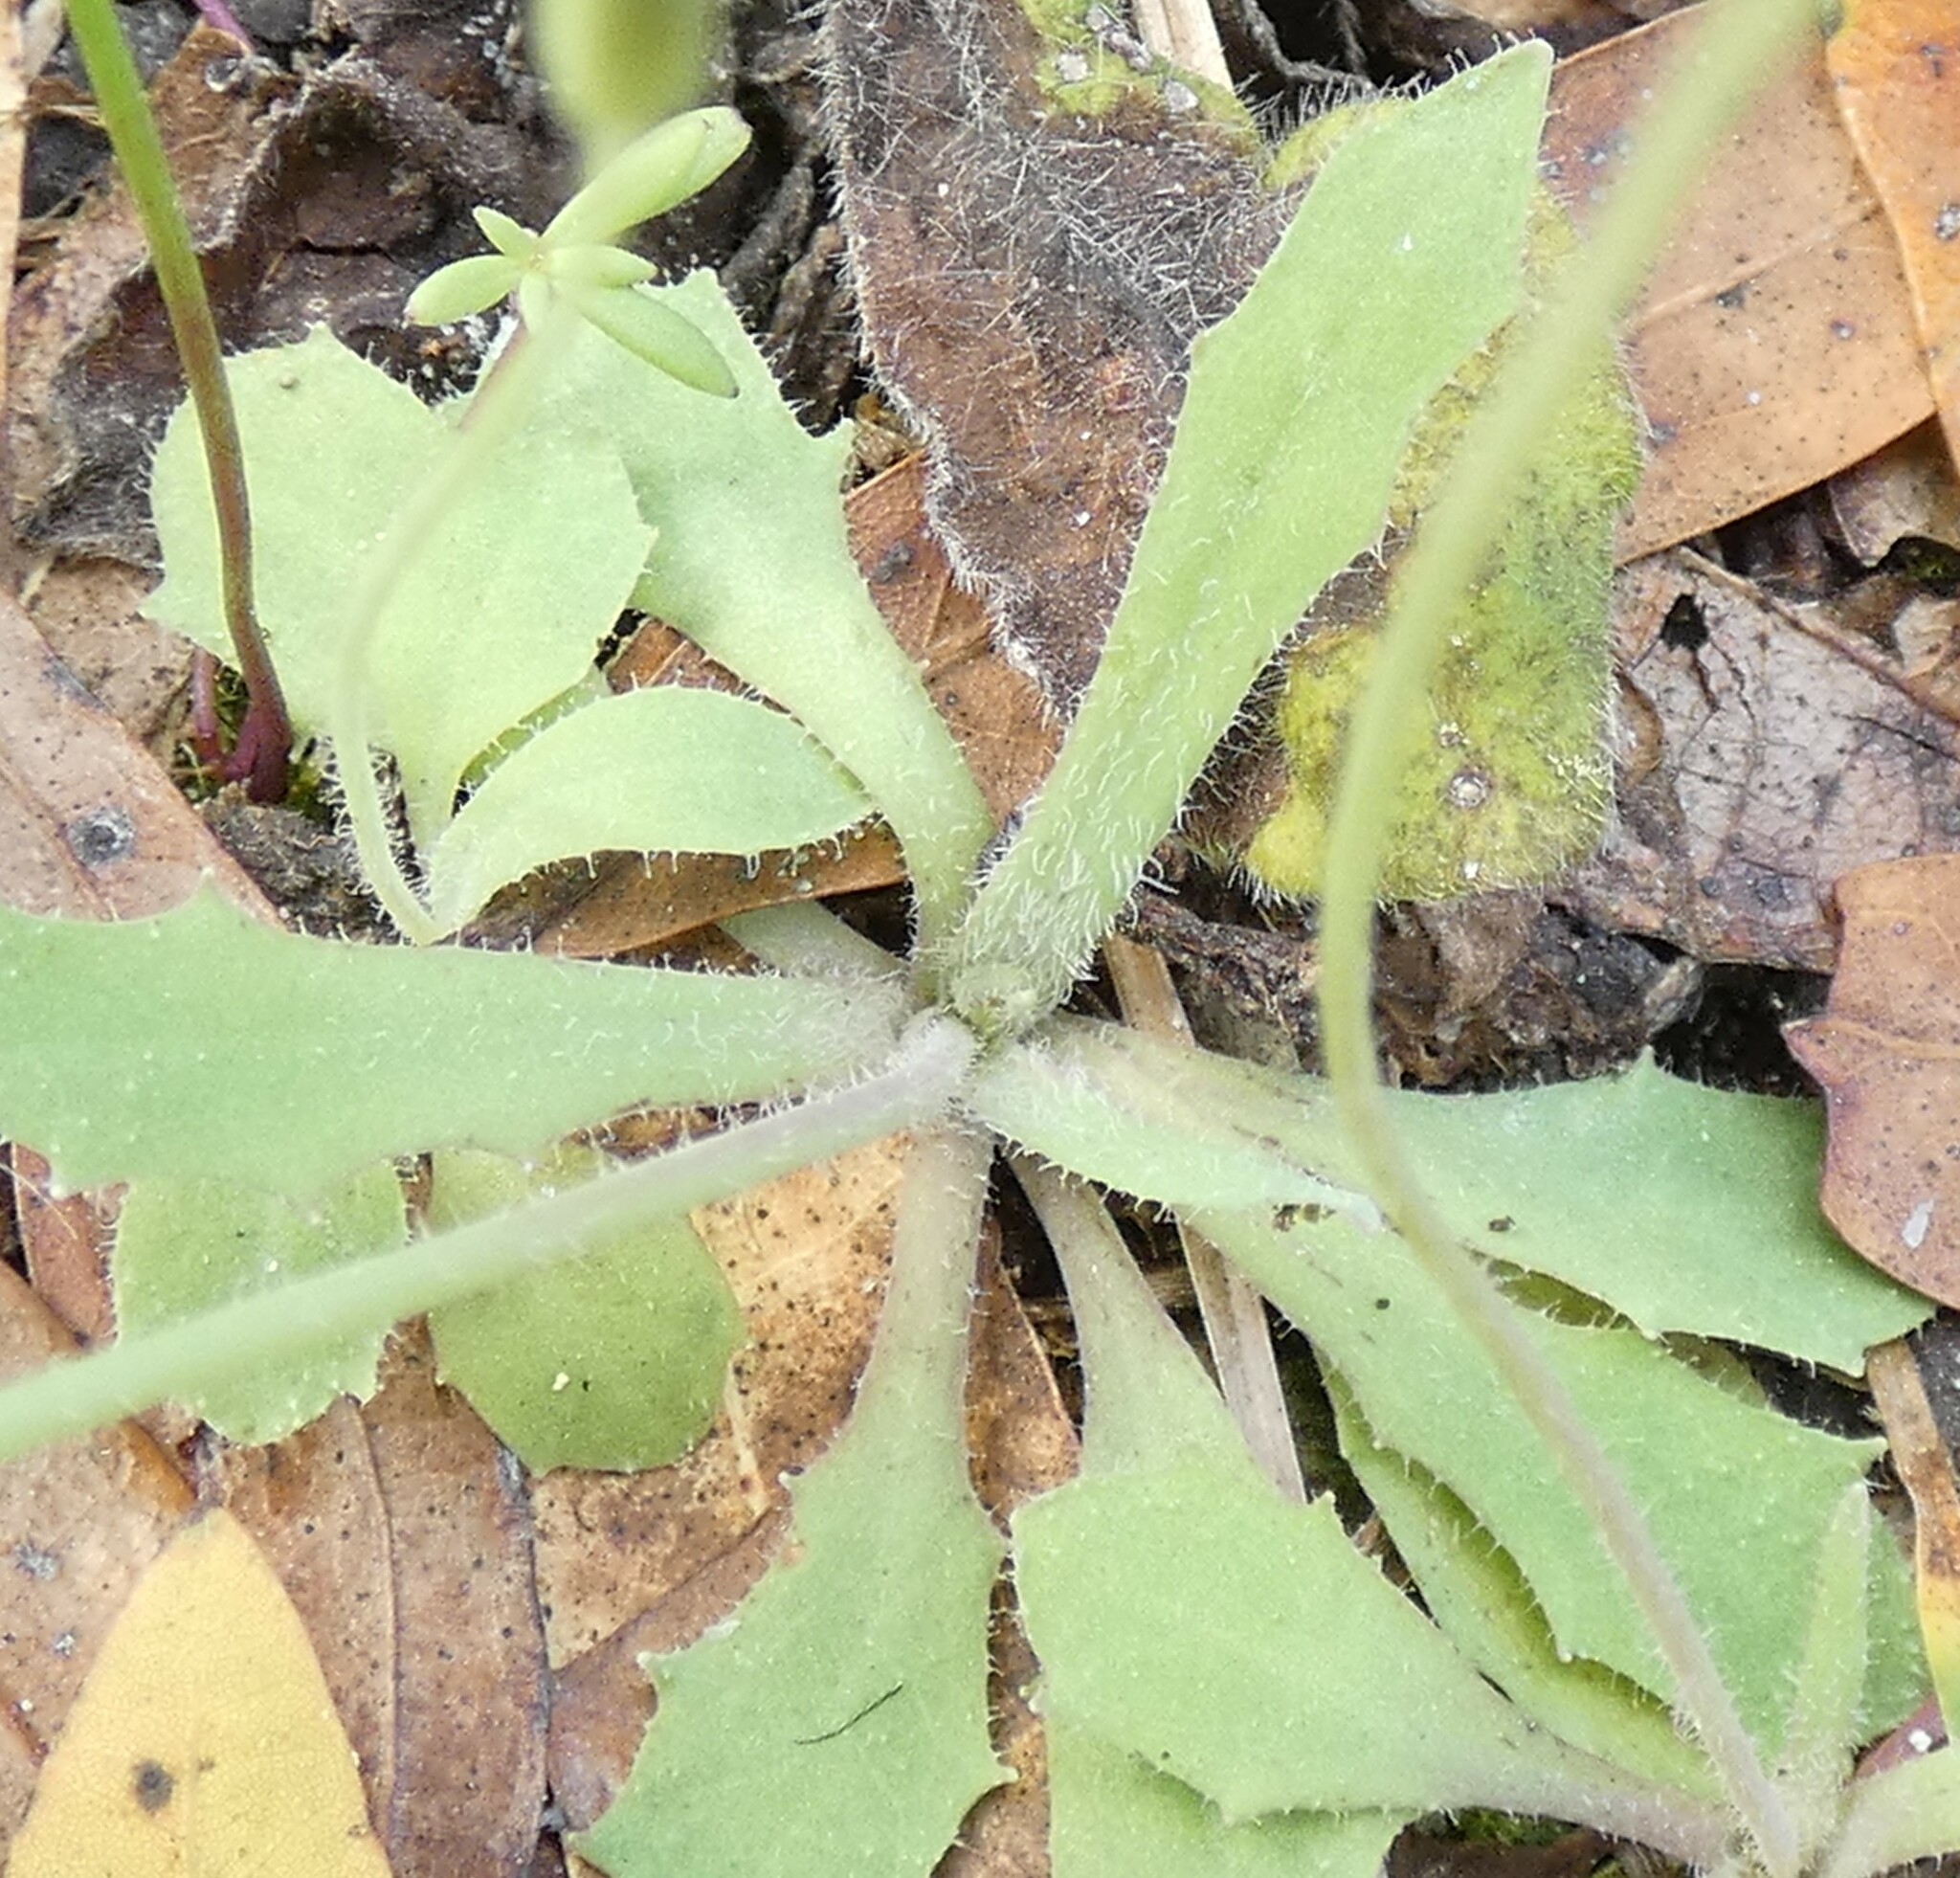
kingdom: Plantae
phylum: Tracheophyta
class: Magnoliopsida
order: Asterales
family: Asteraceae
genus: Krigia
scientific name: Krigia virginica
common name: Virginia dwarf-dandelion
